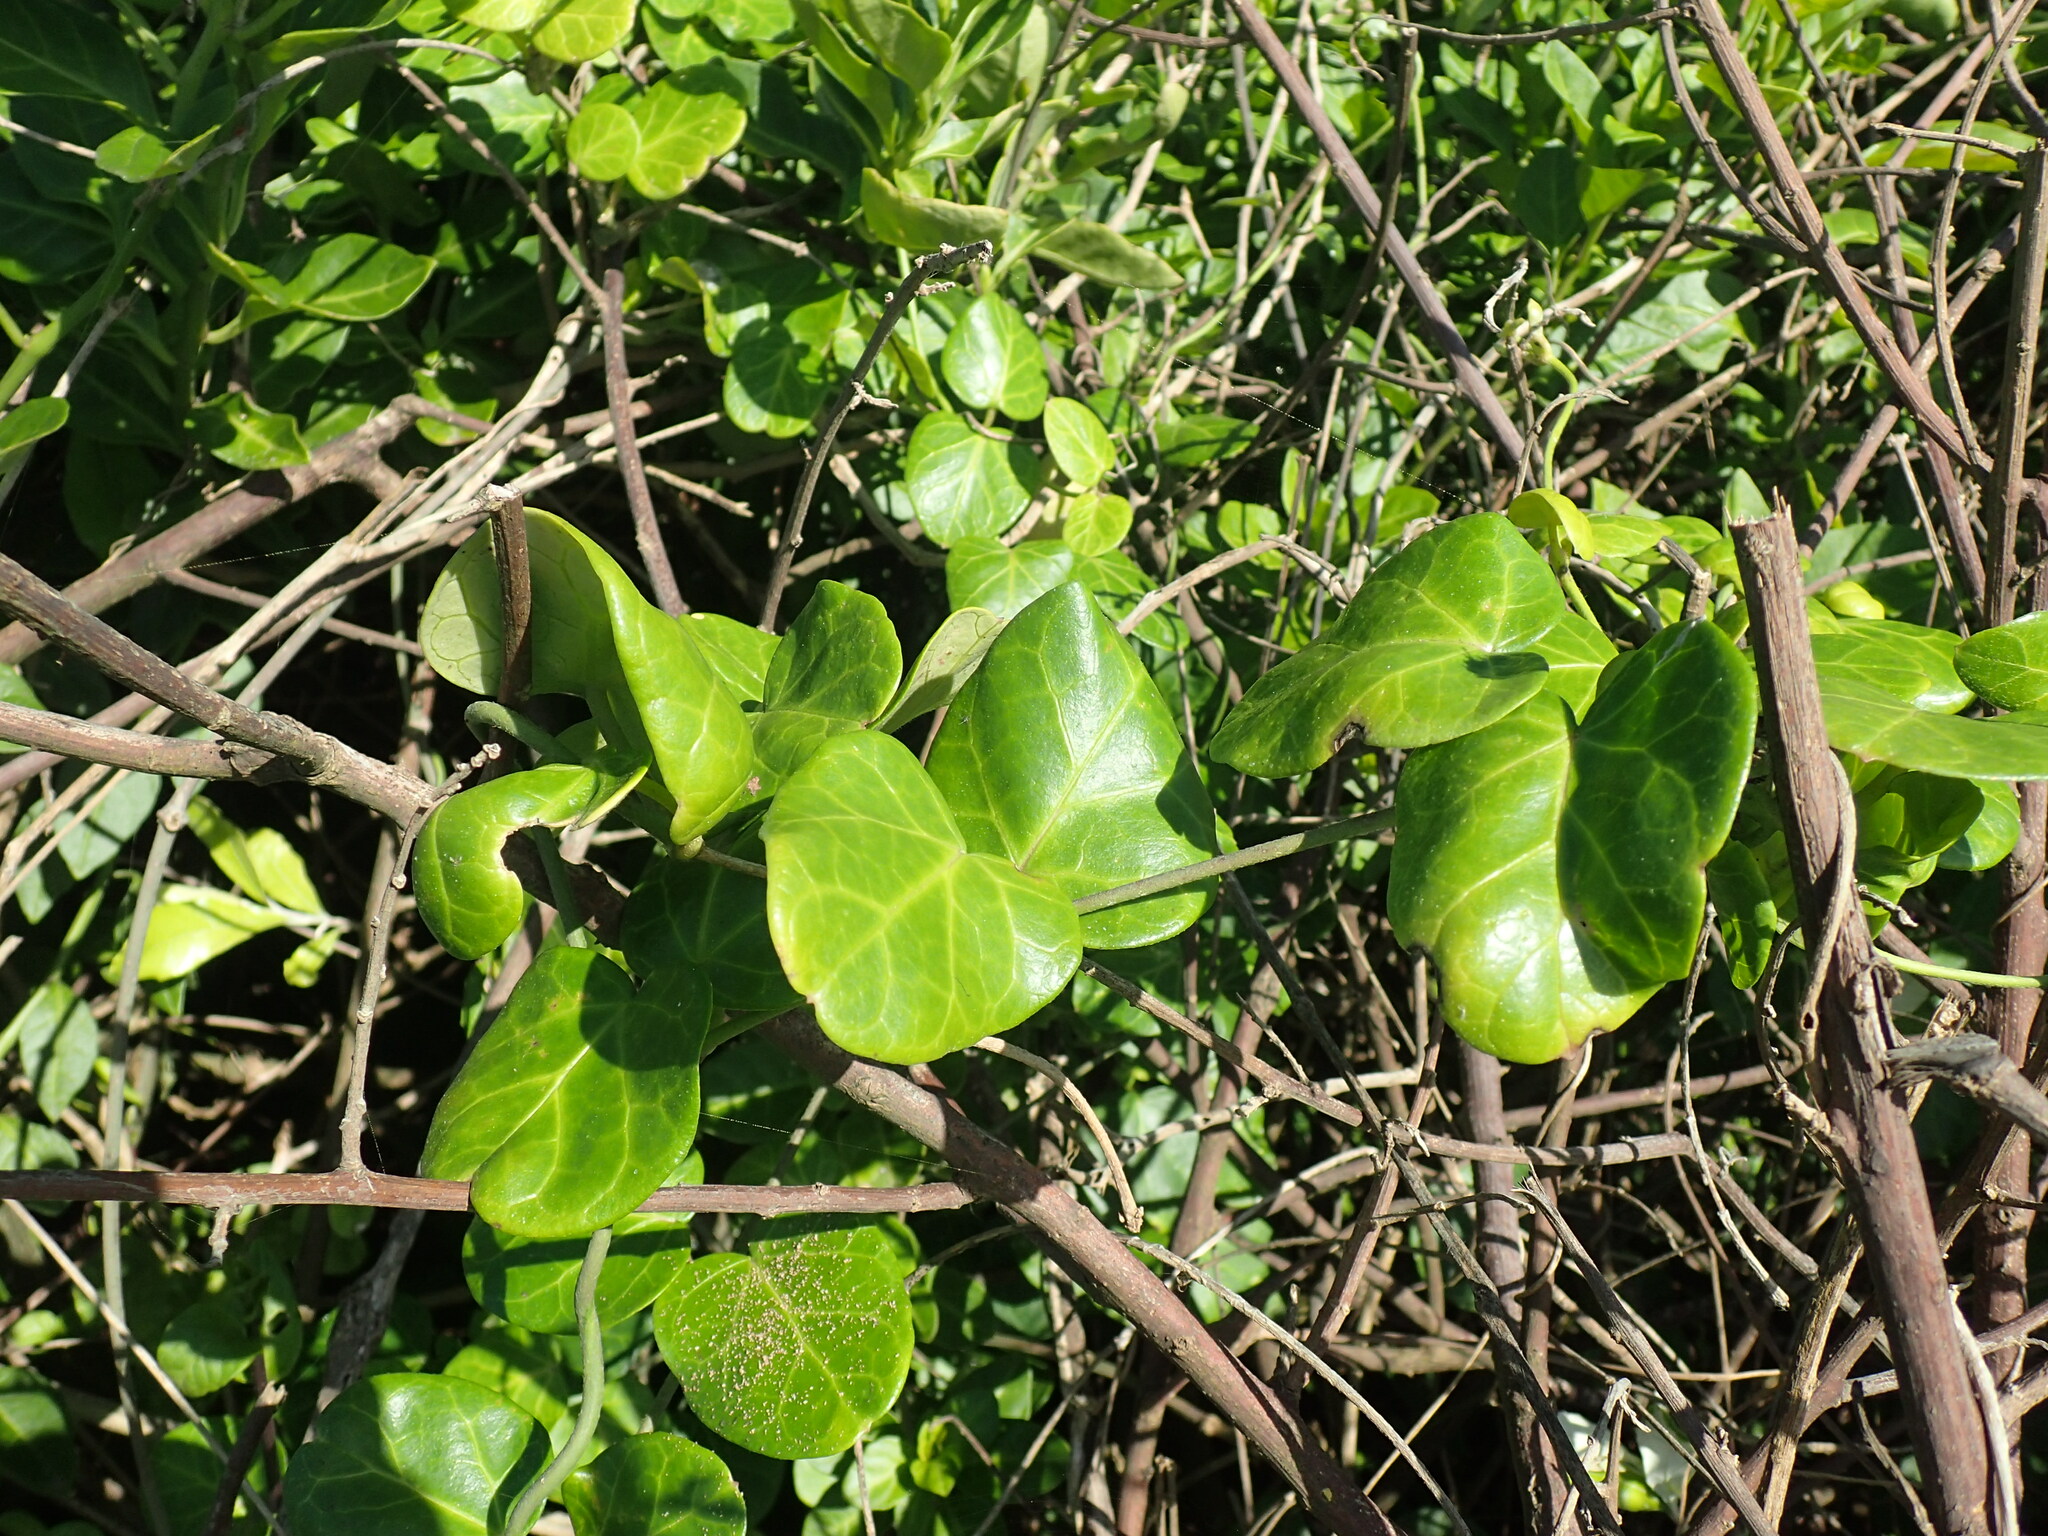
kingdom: Plantae
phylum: Tracheophyta
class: Magnoliopsida
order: Gentianales
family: Apocynaceae
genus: Cynanchum
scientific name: Cynanchum obtusifolium
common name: Monkey-rope
